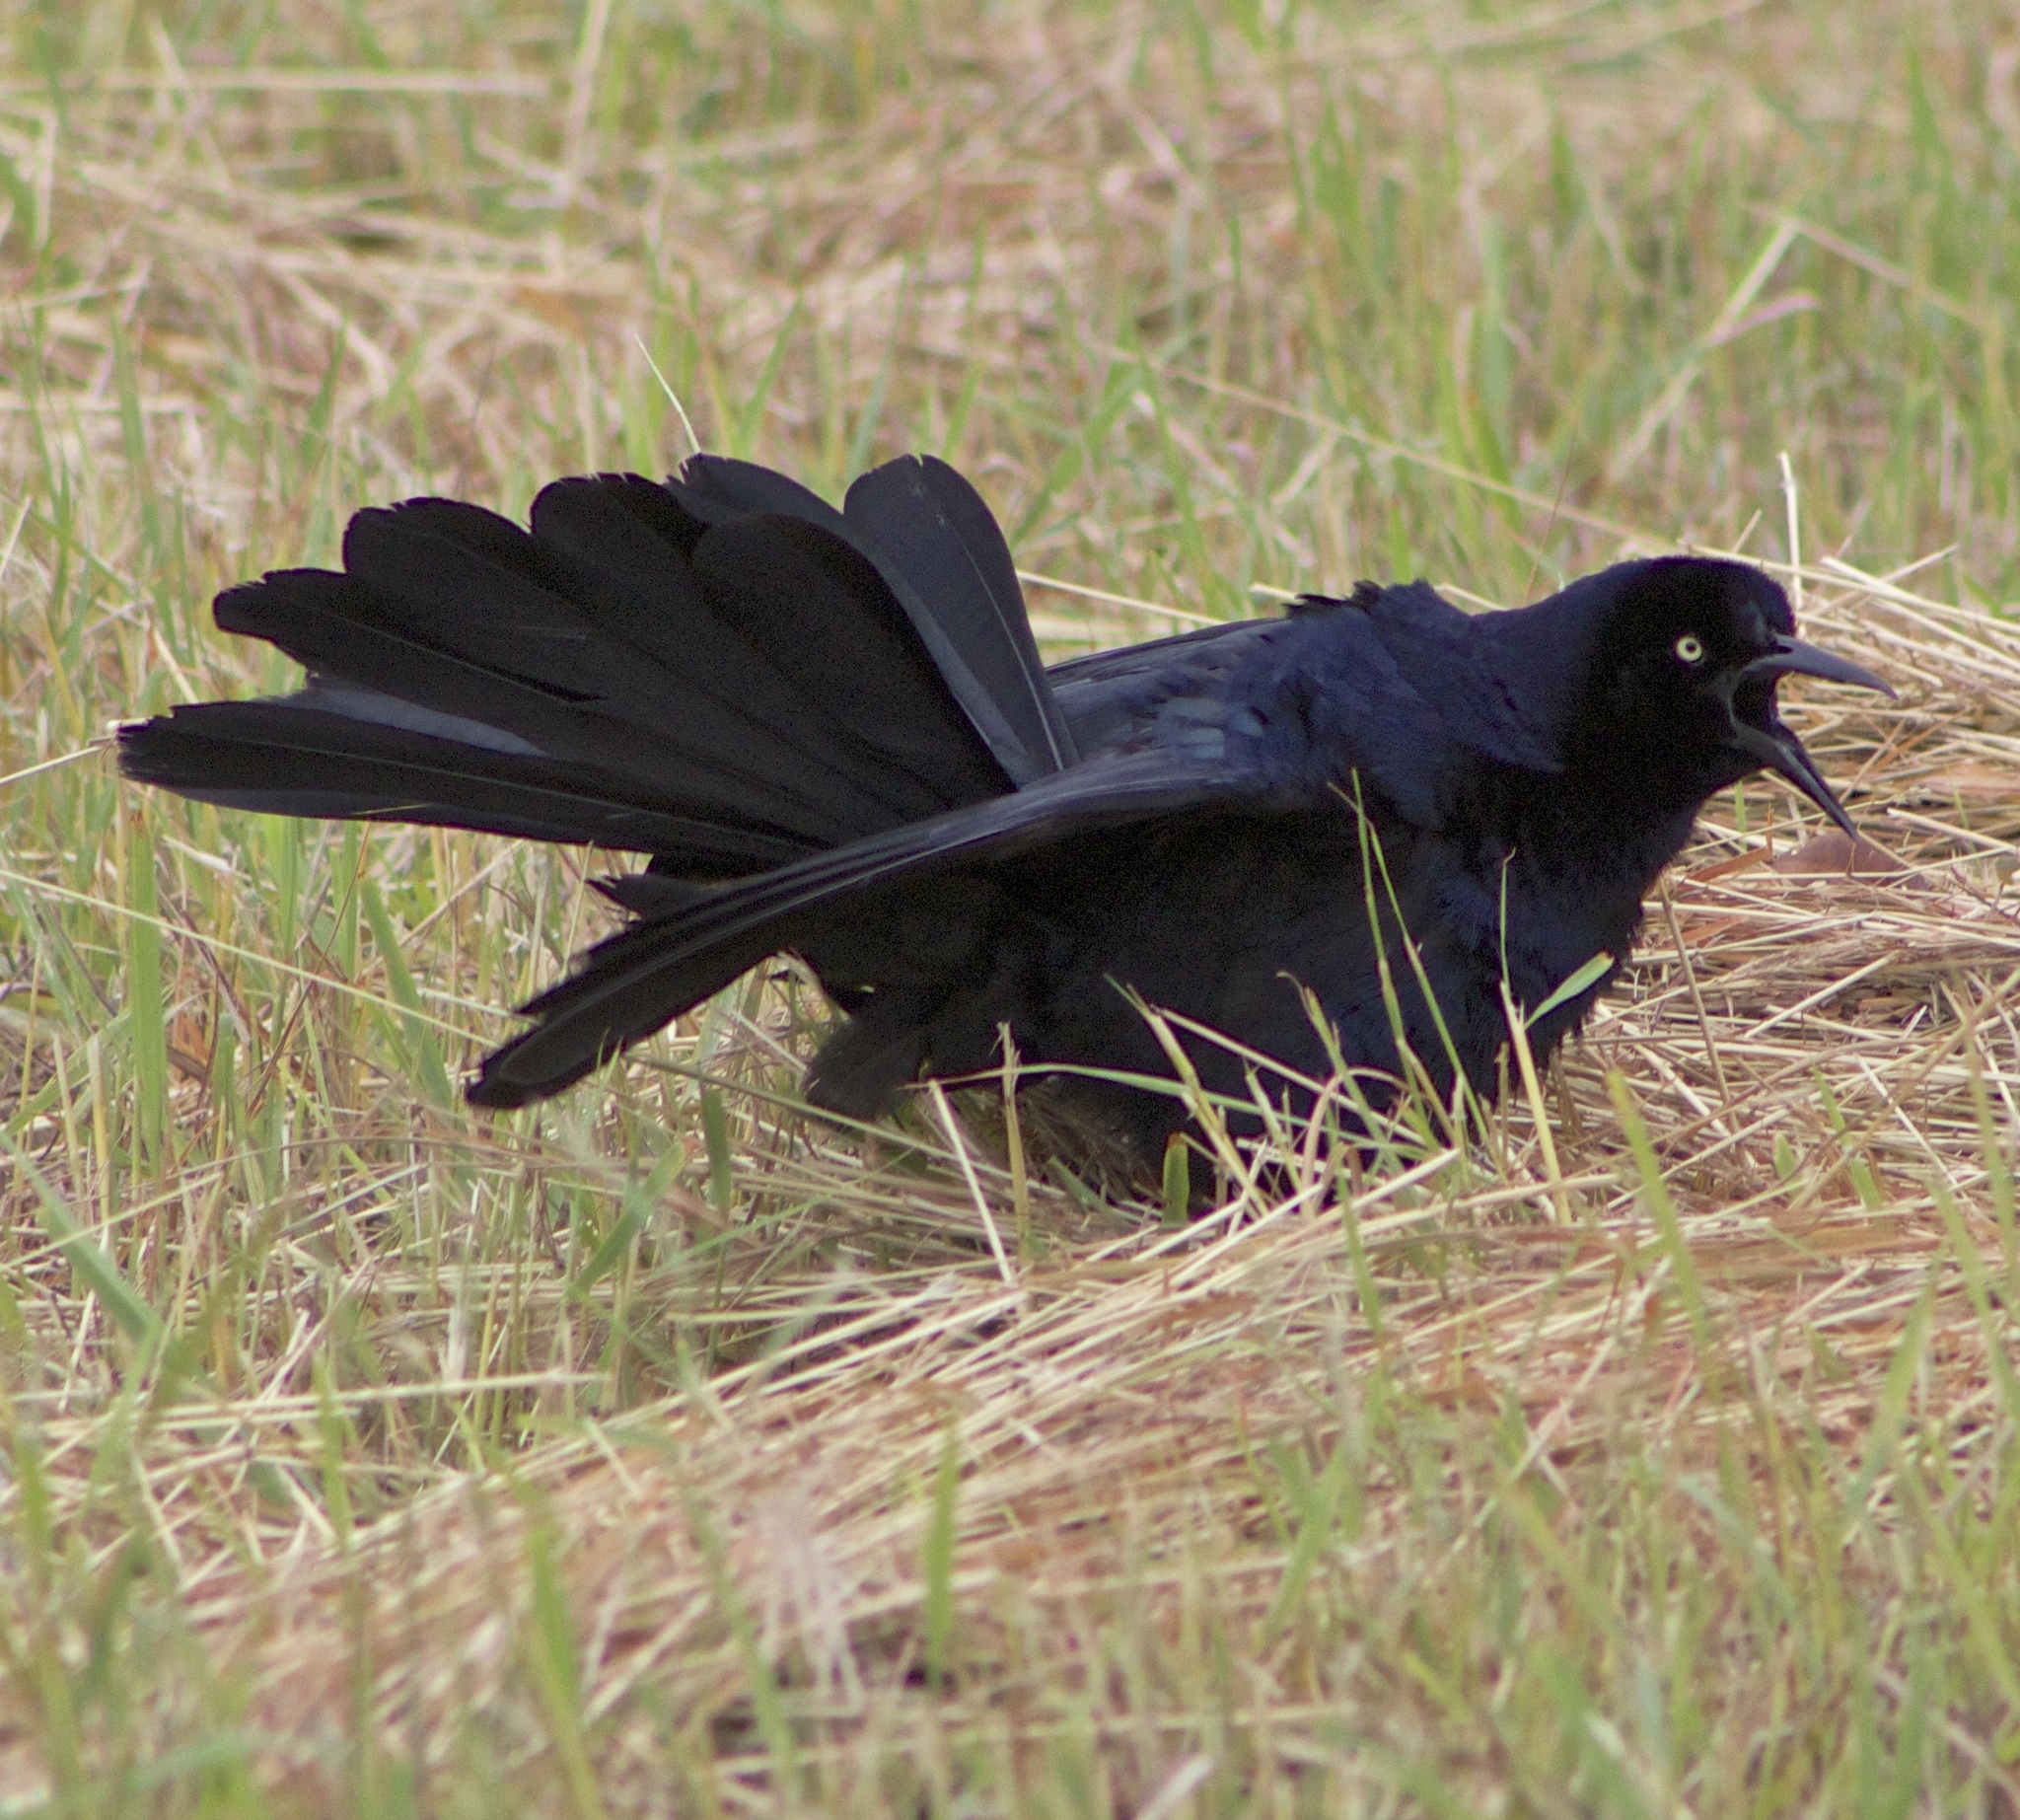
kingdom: Animalia
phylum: Chordata
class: Aves
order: Passeriformes
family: Icteridae
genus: Quiscalus
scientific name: Quiscalus mexicanus
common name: Great-tailed grackle
